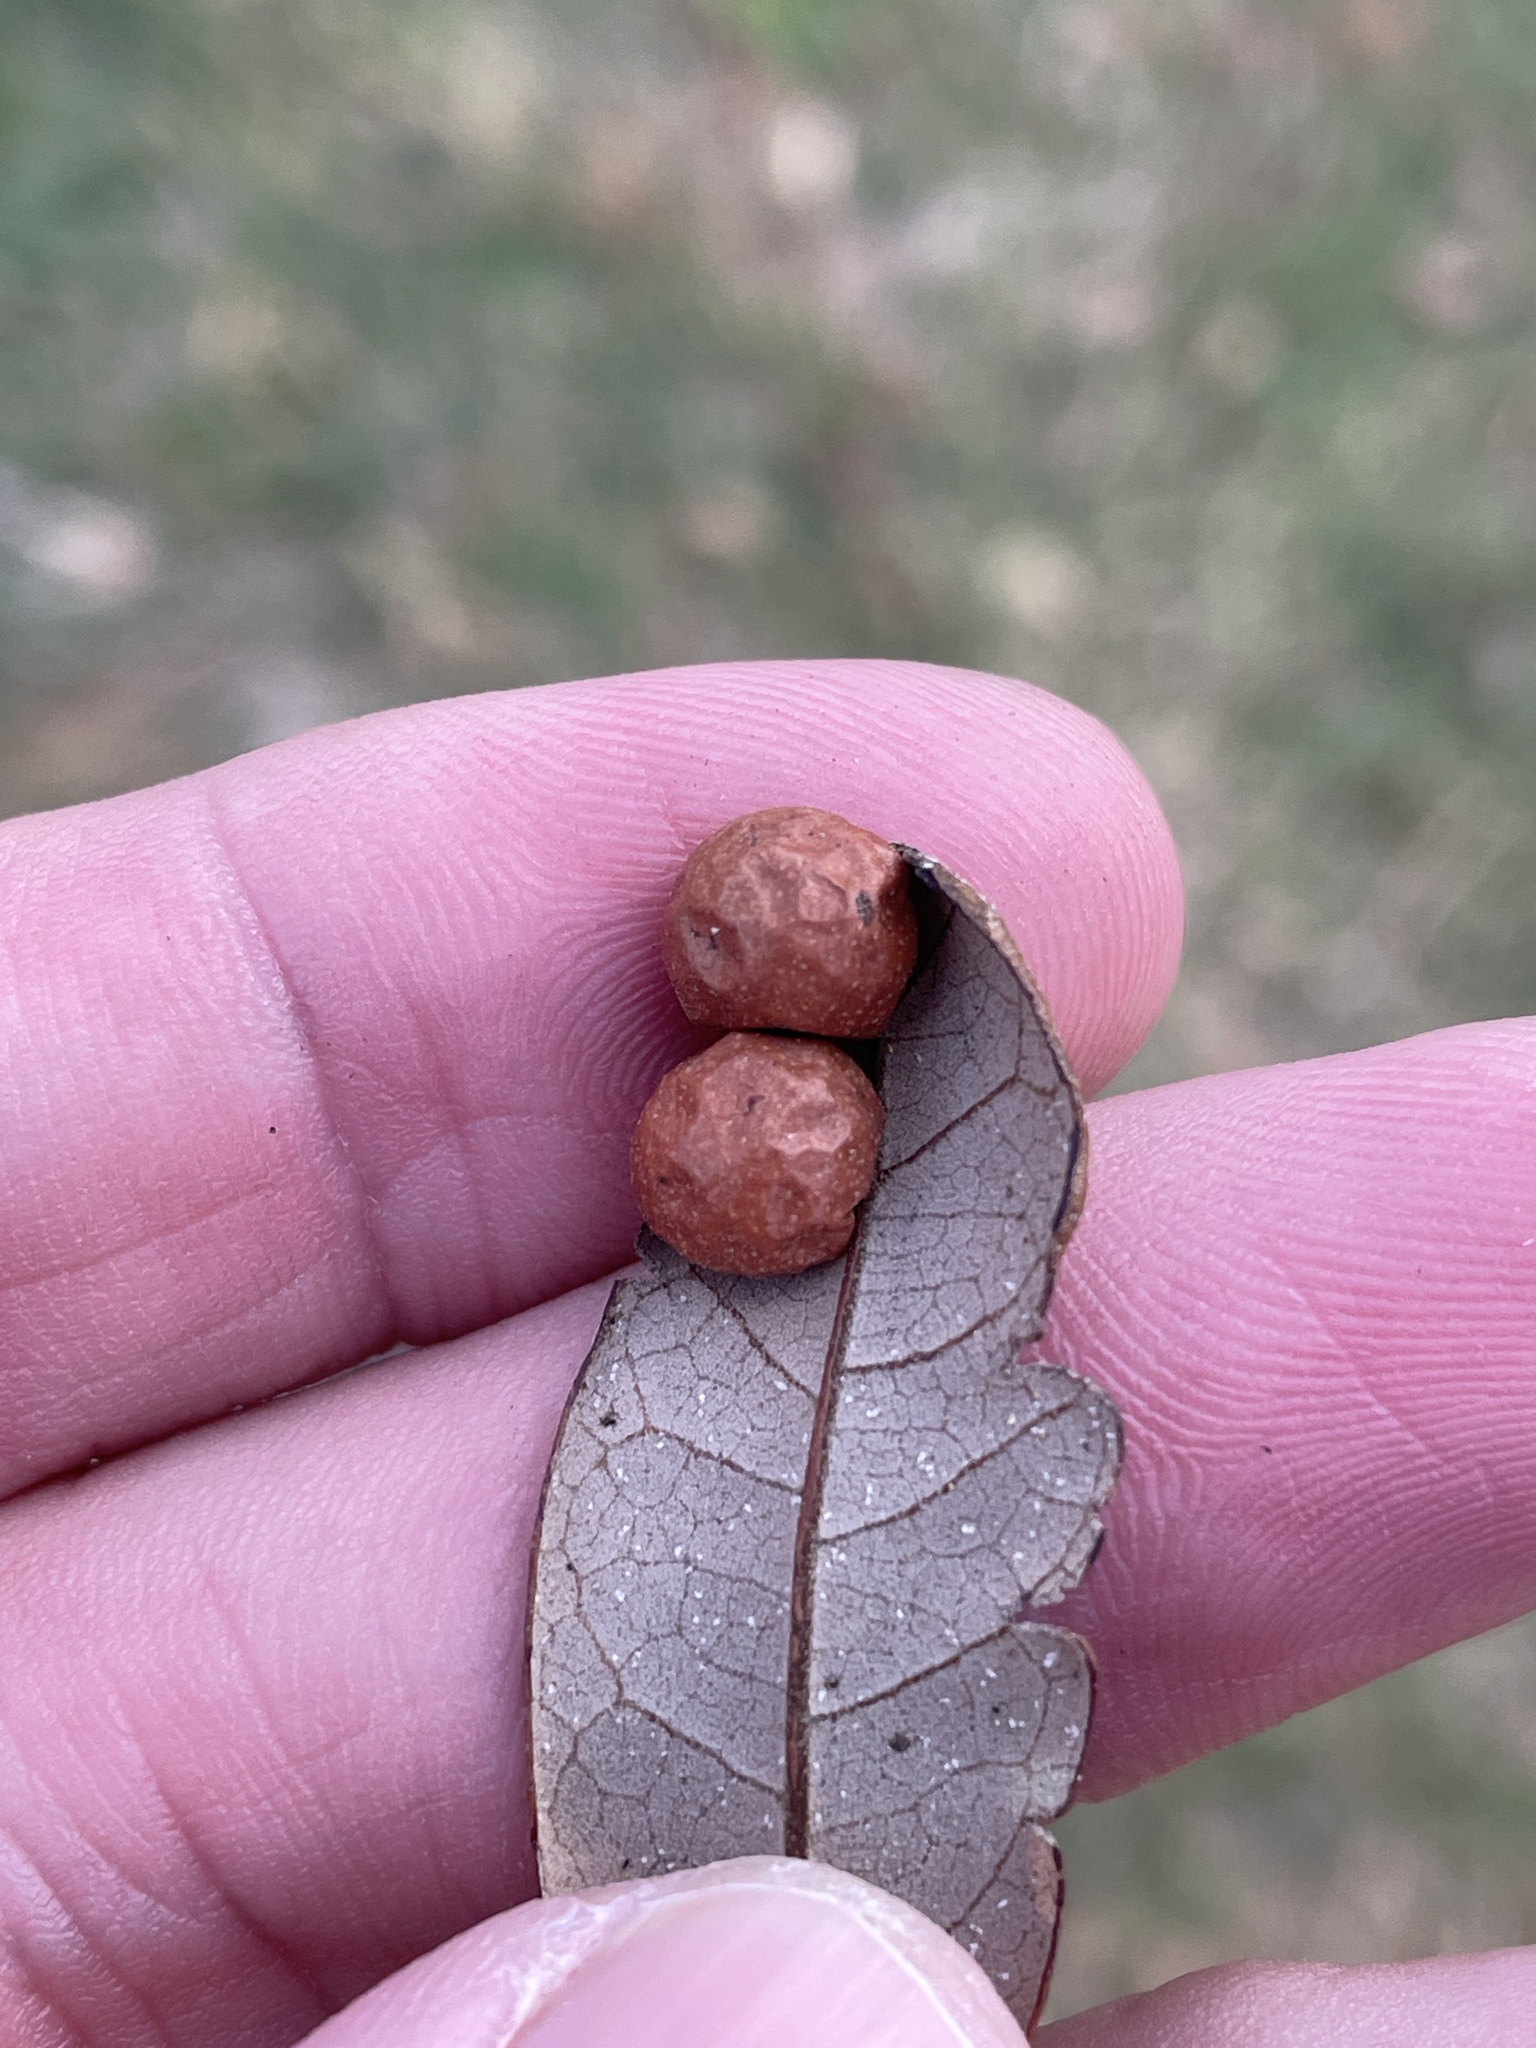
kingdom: Animalia
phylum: Arthropoda
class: Insecta
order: Hymenoptera
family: Cynipidae
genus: Belonocnema
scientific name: Belonocnema kinseyi
